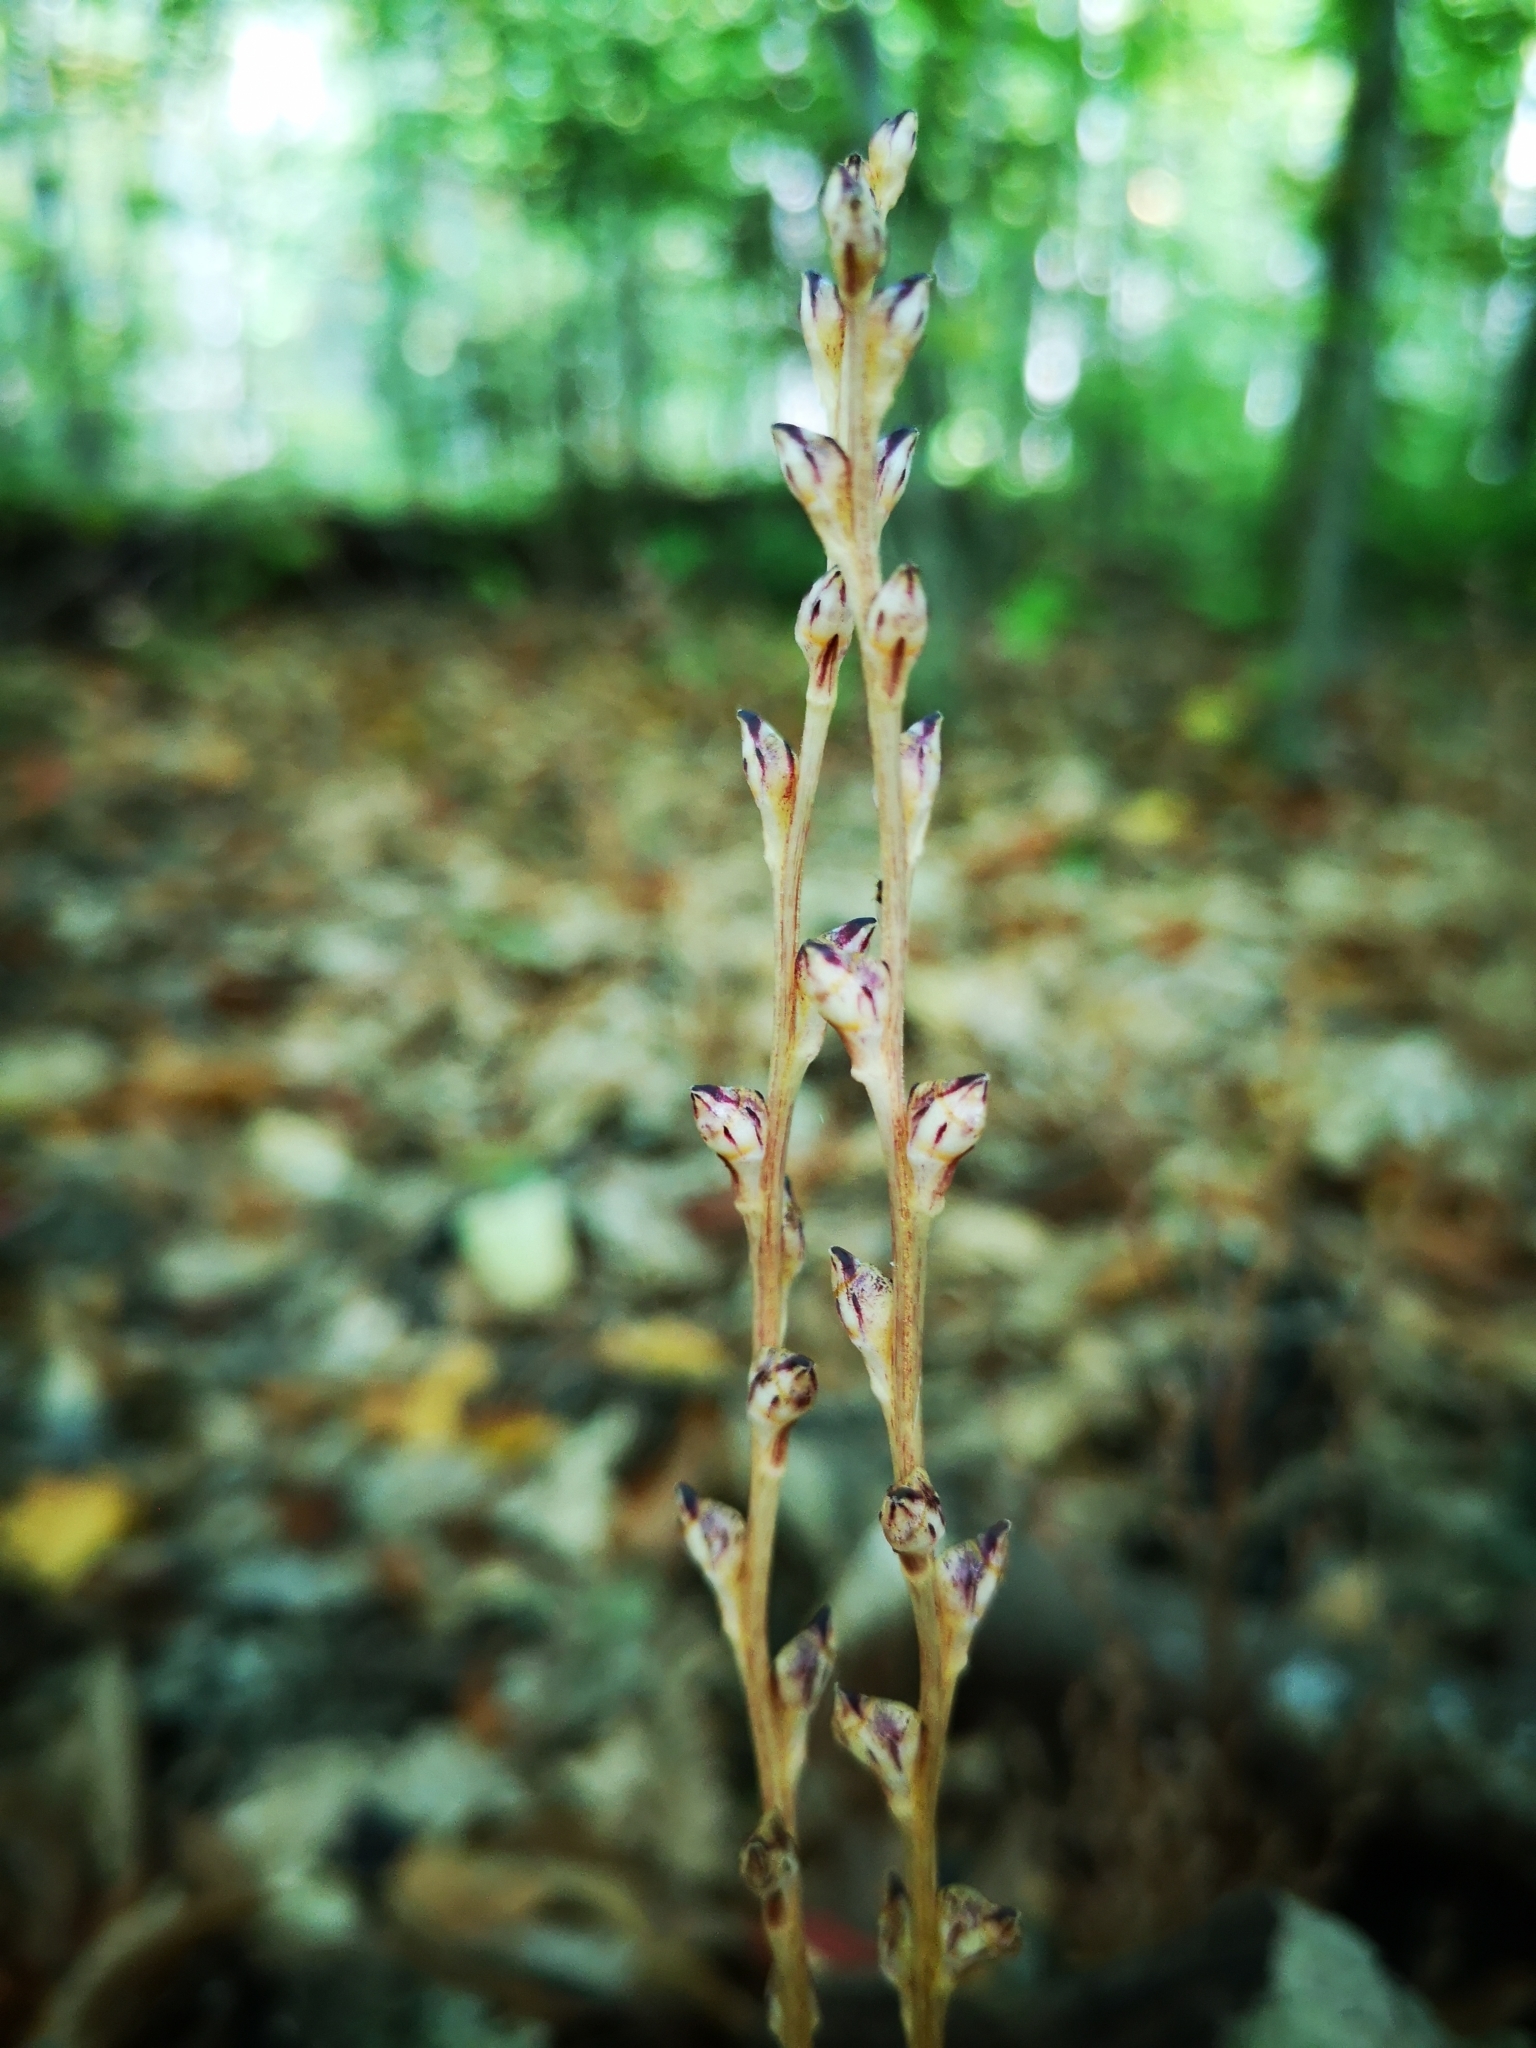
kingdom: Plantae
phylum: Tracheophyta
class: Magnoliopsida
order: Lamiales
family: Orobanchaceae
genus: Epifagus
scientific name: Epifagus virginiana
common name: Beechdrops
